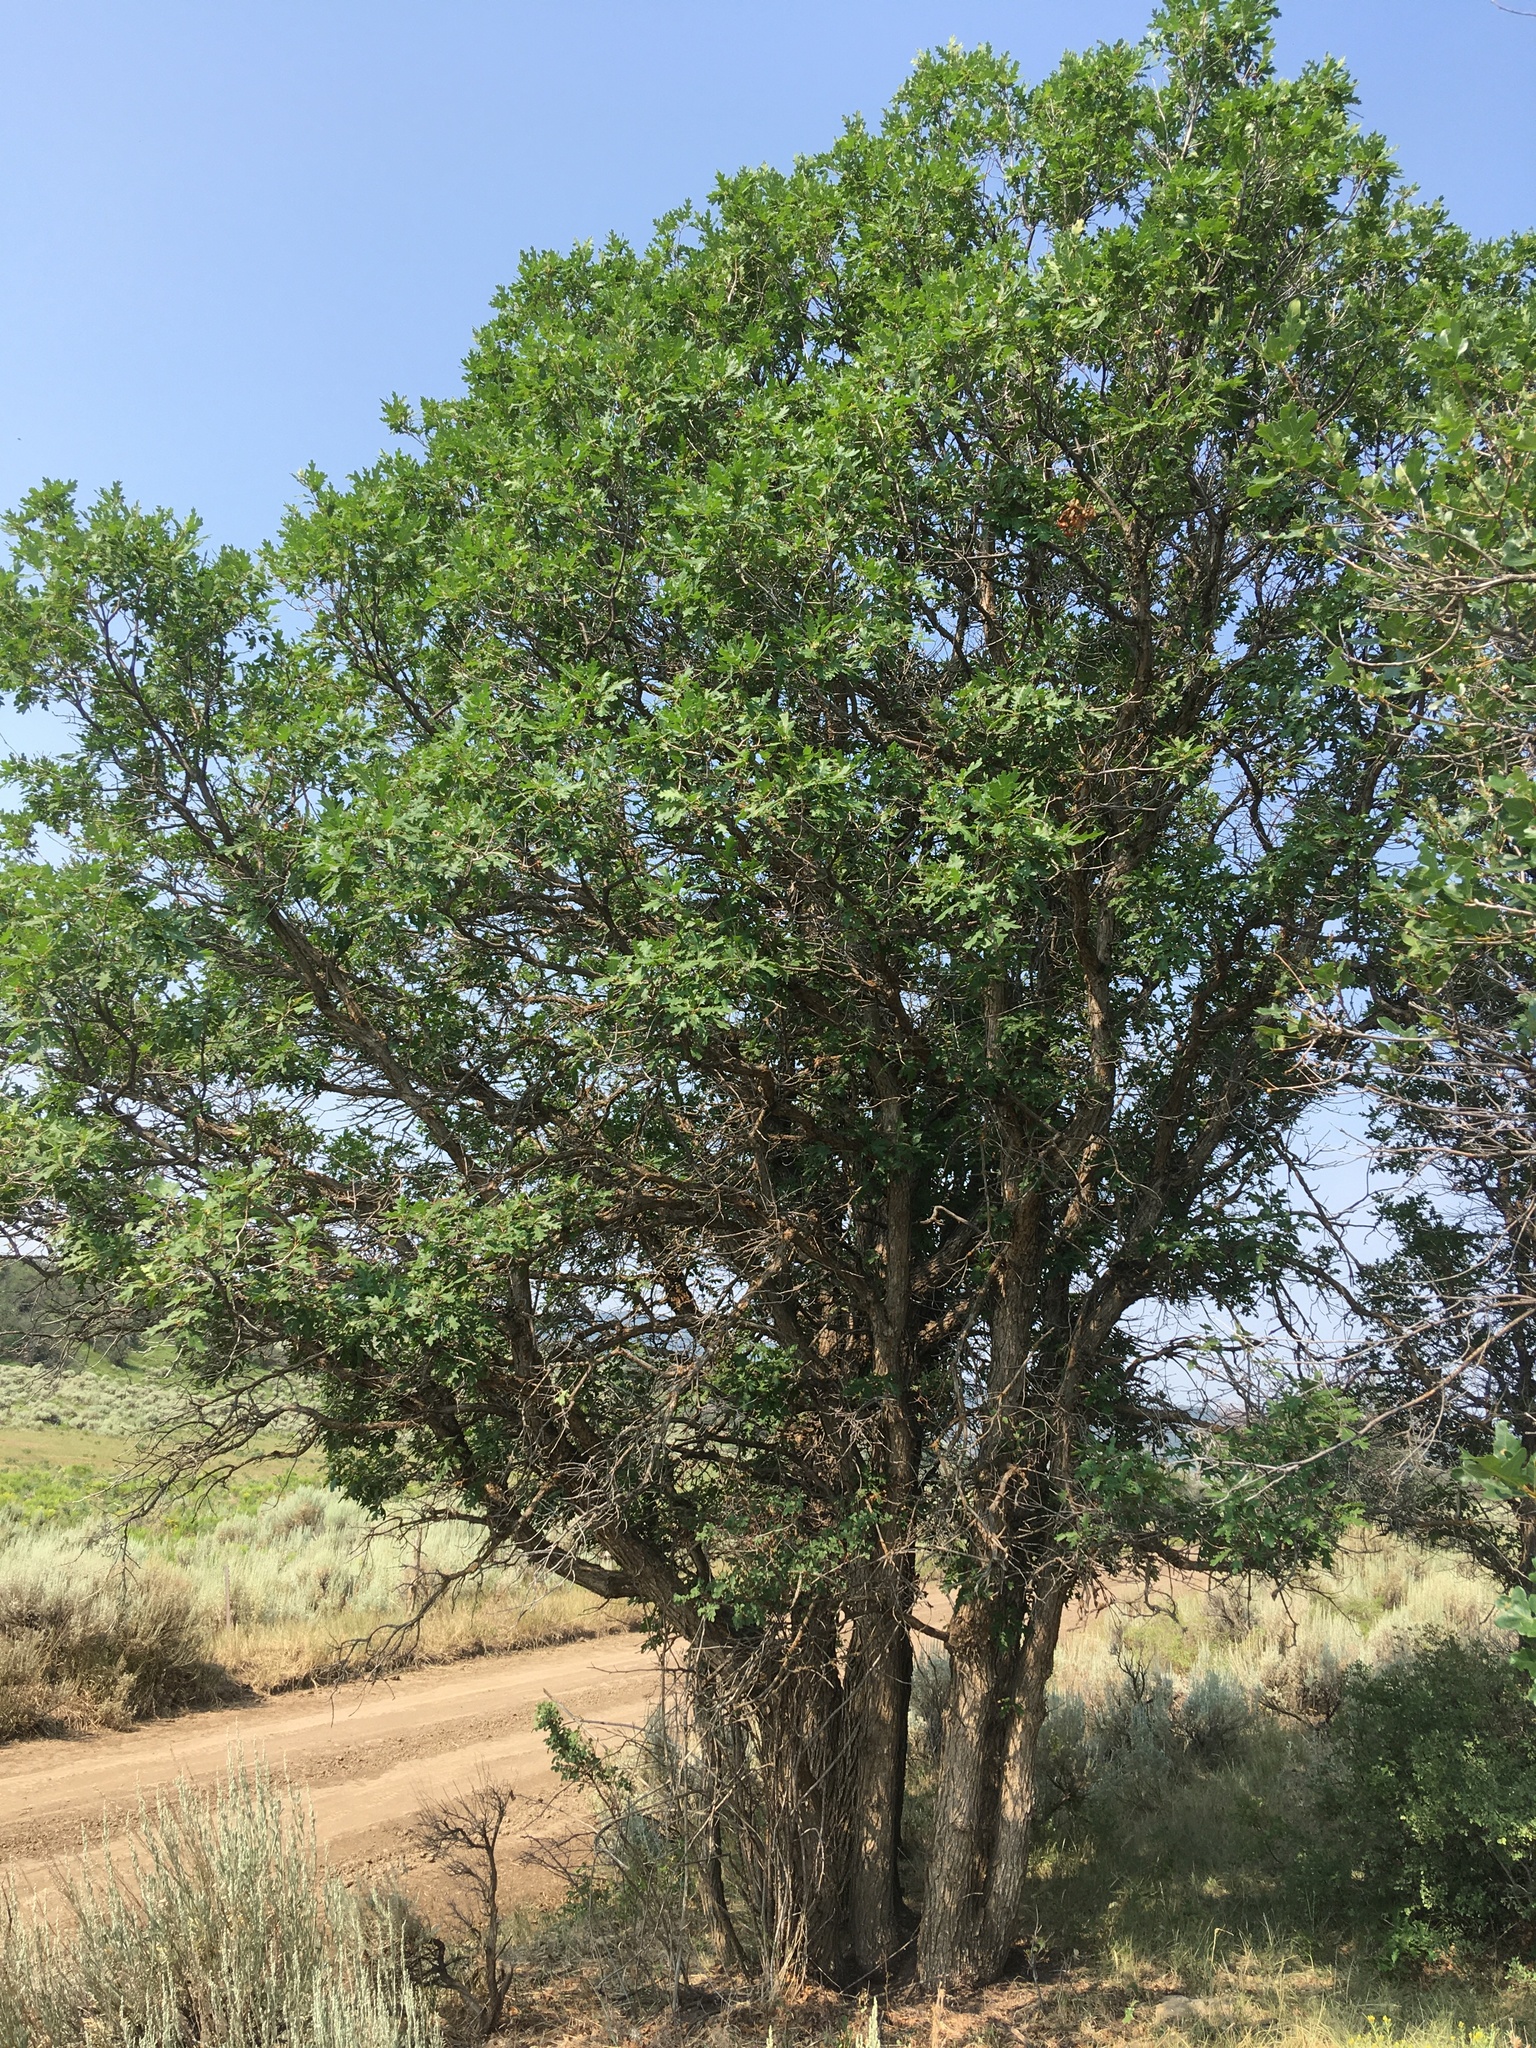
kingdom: Plantae
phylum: Tracheophyta
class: Magnoliopsida
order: Fagales
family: Fagaceae
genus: Quercus
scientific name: Quercus gambelii
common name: Gambel oak
